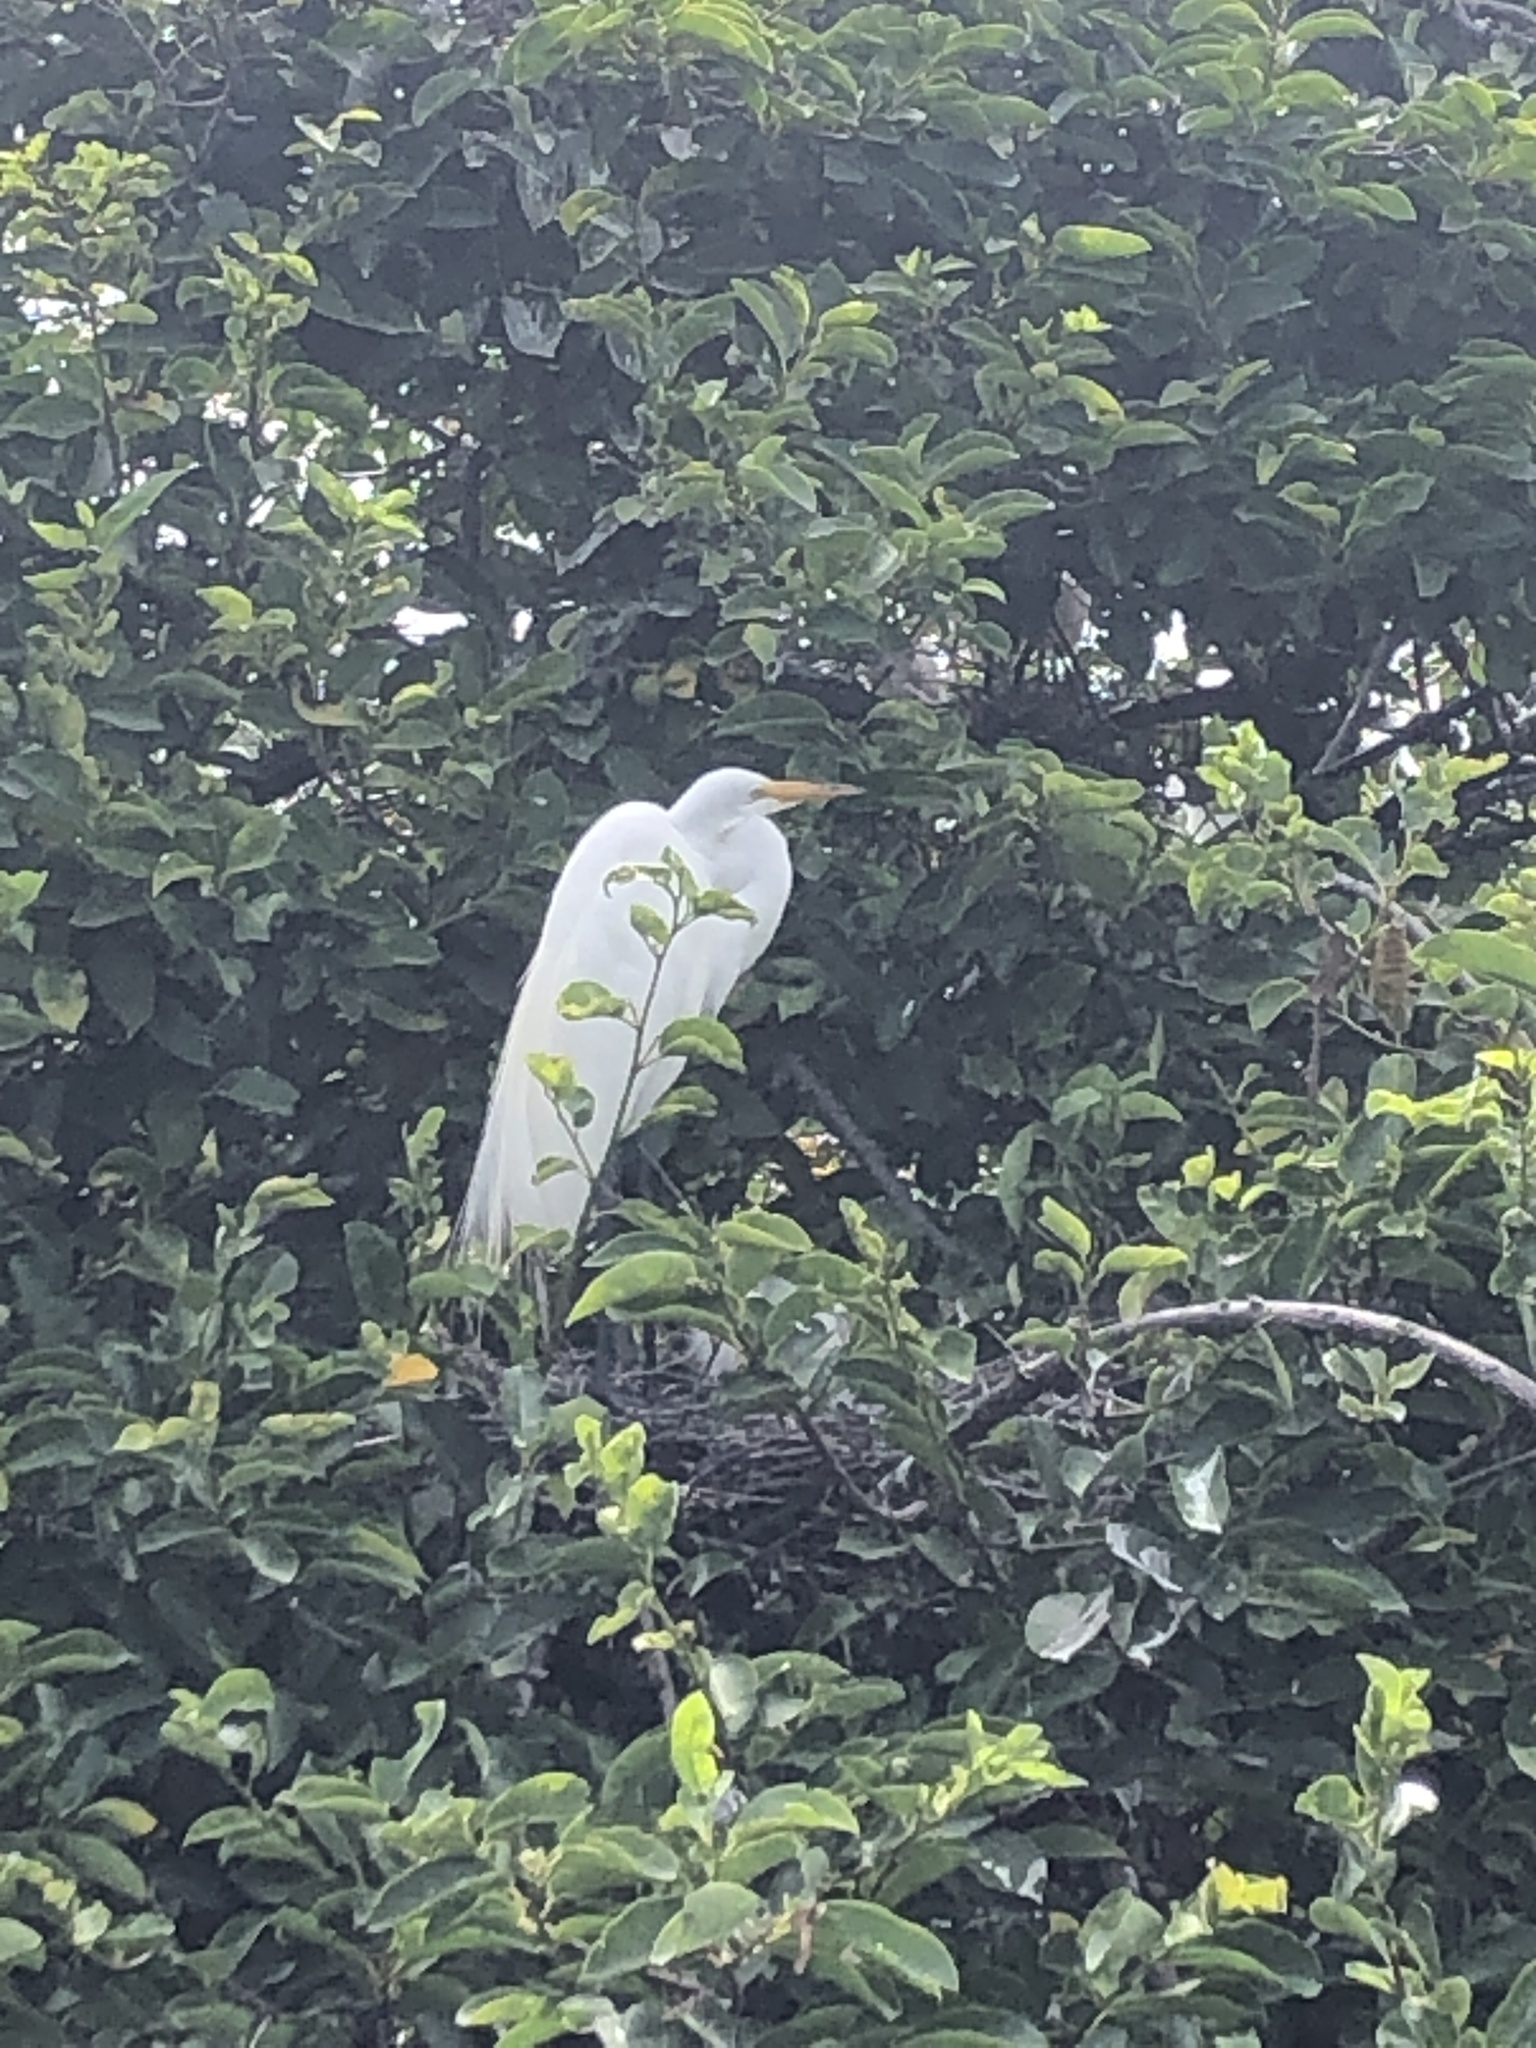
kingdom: Animalia
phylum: Chordata
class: Aves
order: Pelecaniformes
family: Ardeidae
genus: Ardea
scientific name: Ardea alba
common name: Great egret
